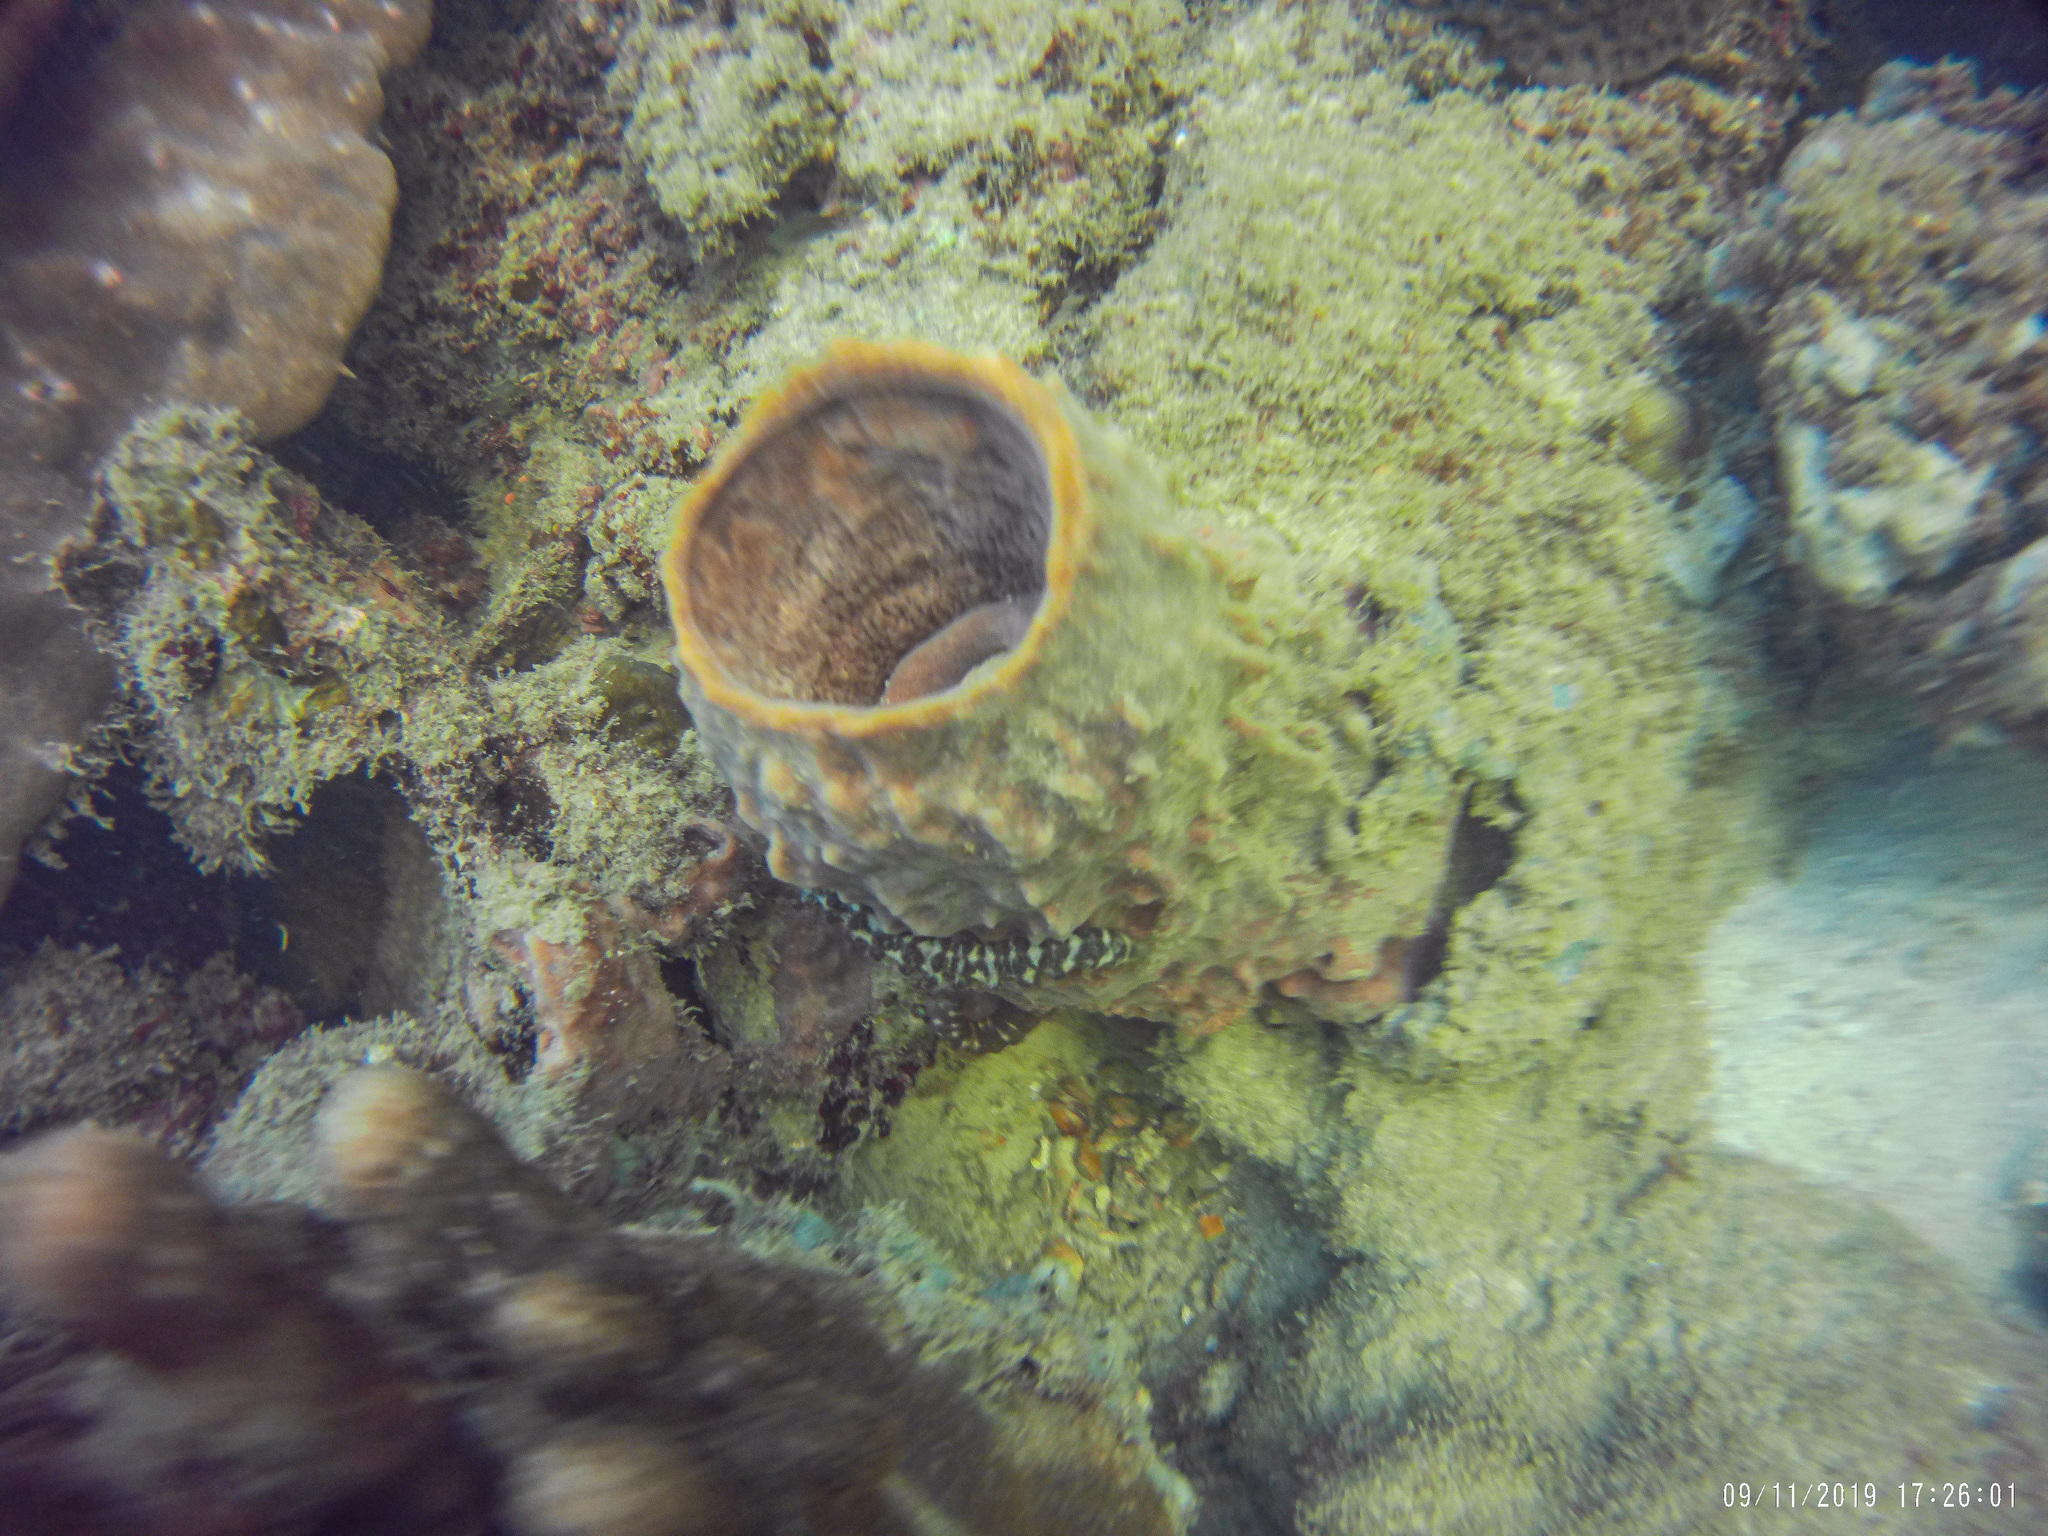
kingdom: Animalia
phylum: Porifera
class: Demospongiae
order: Haplosclerida
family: Petrosiidae
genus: Xestospongia
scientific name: Xestospongia testudinaria
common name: Barrel sponge
